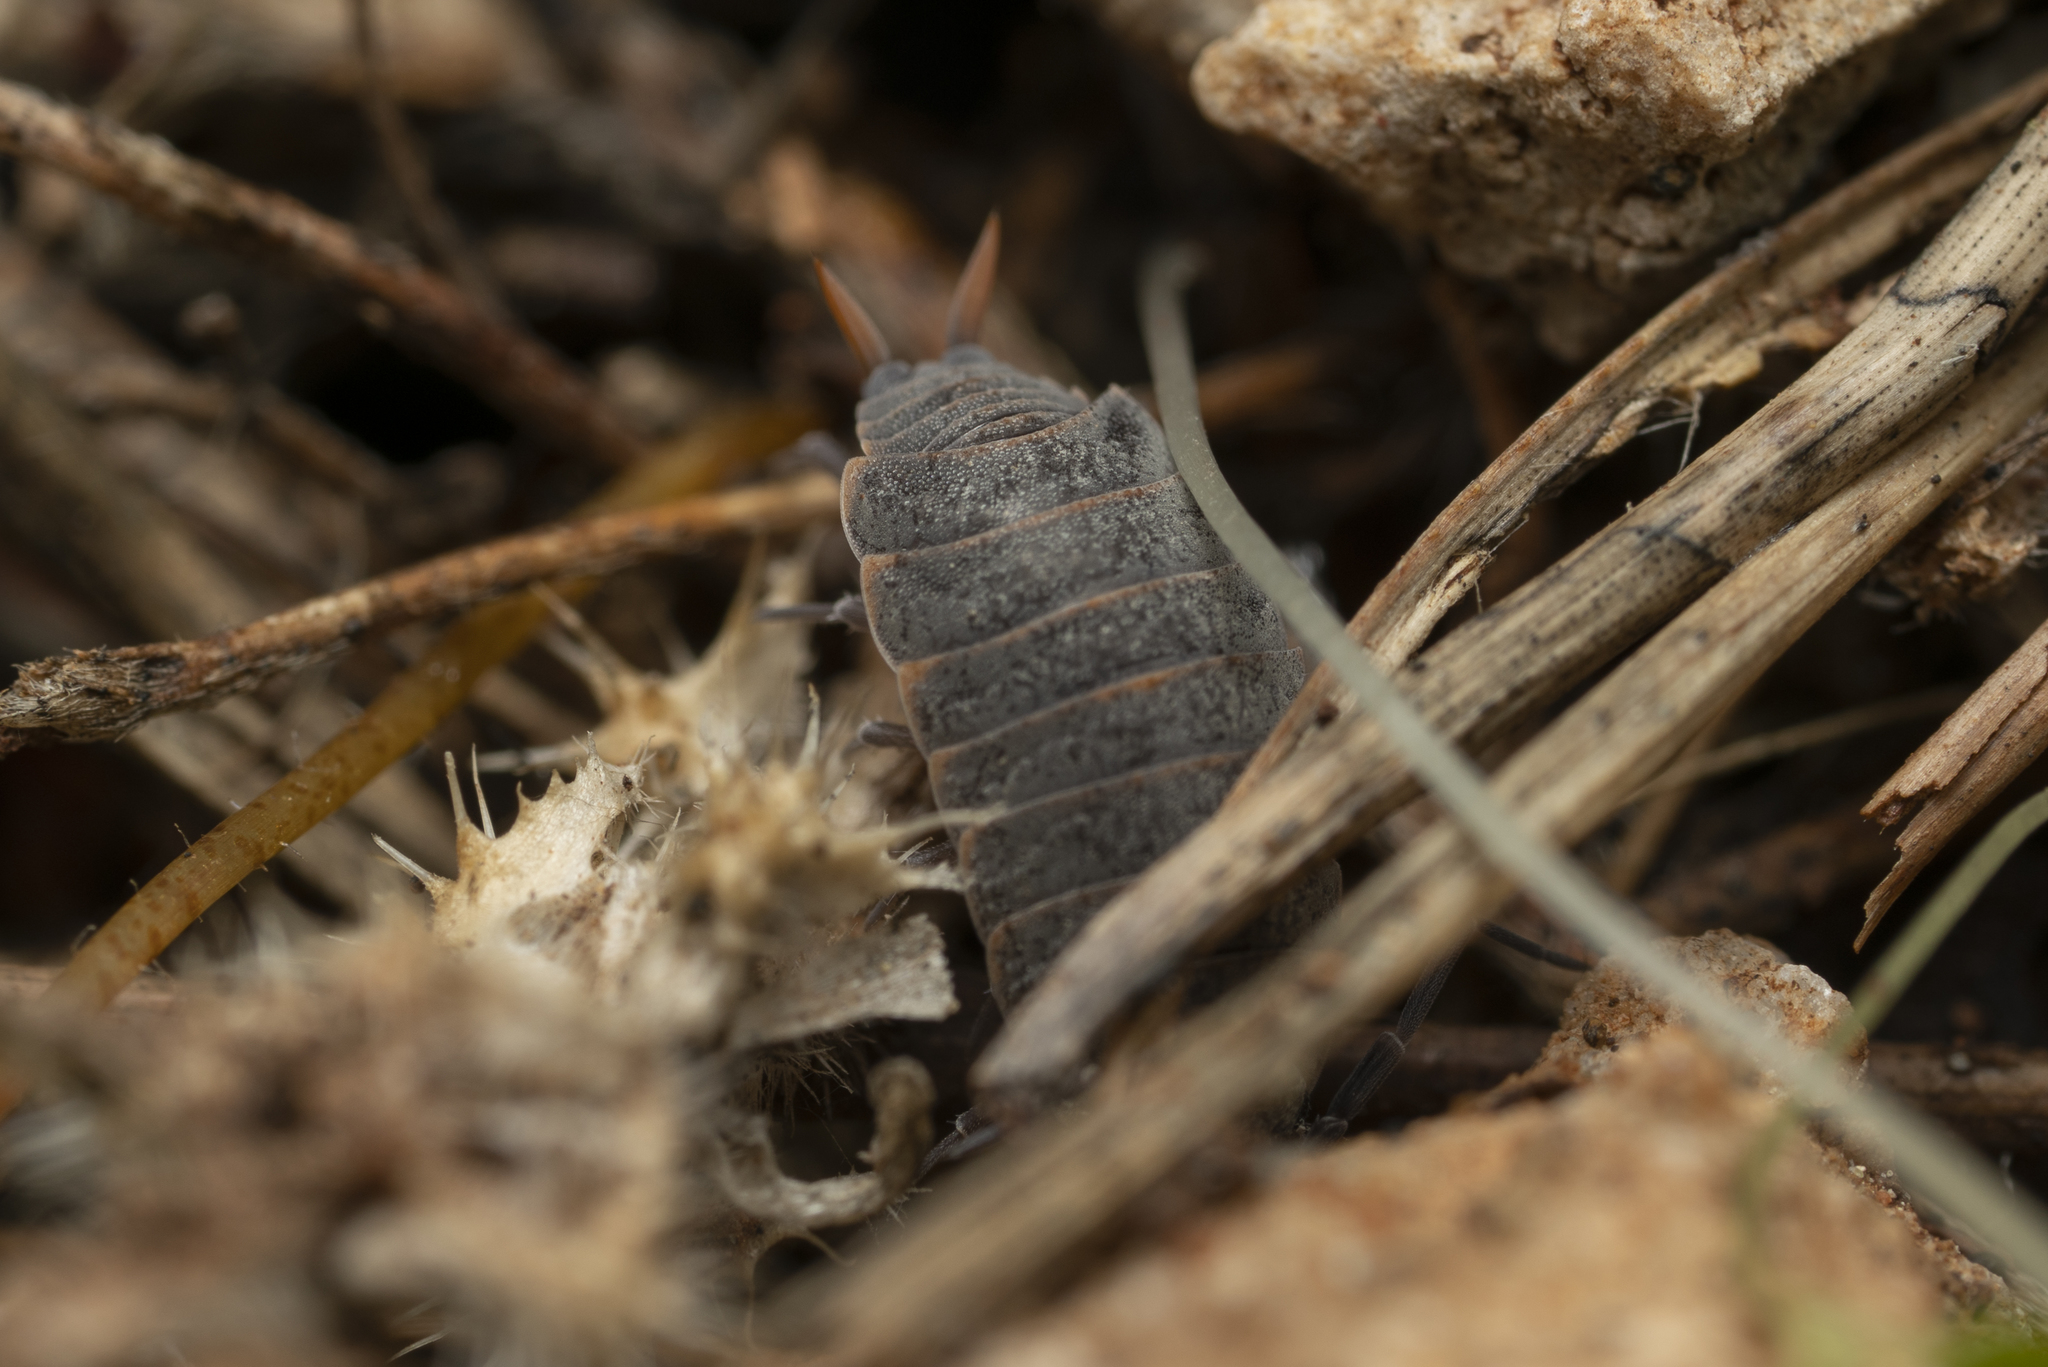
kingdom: Animalia
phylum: Arthropoda
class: Malacostraca
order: Isopoda
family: Porcellionidae
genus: Porcellionides
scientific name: Porcellionides pruinosus
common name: Plum woodlouse
